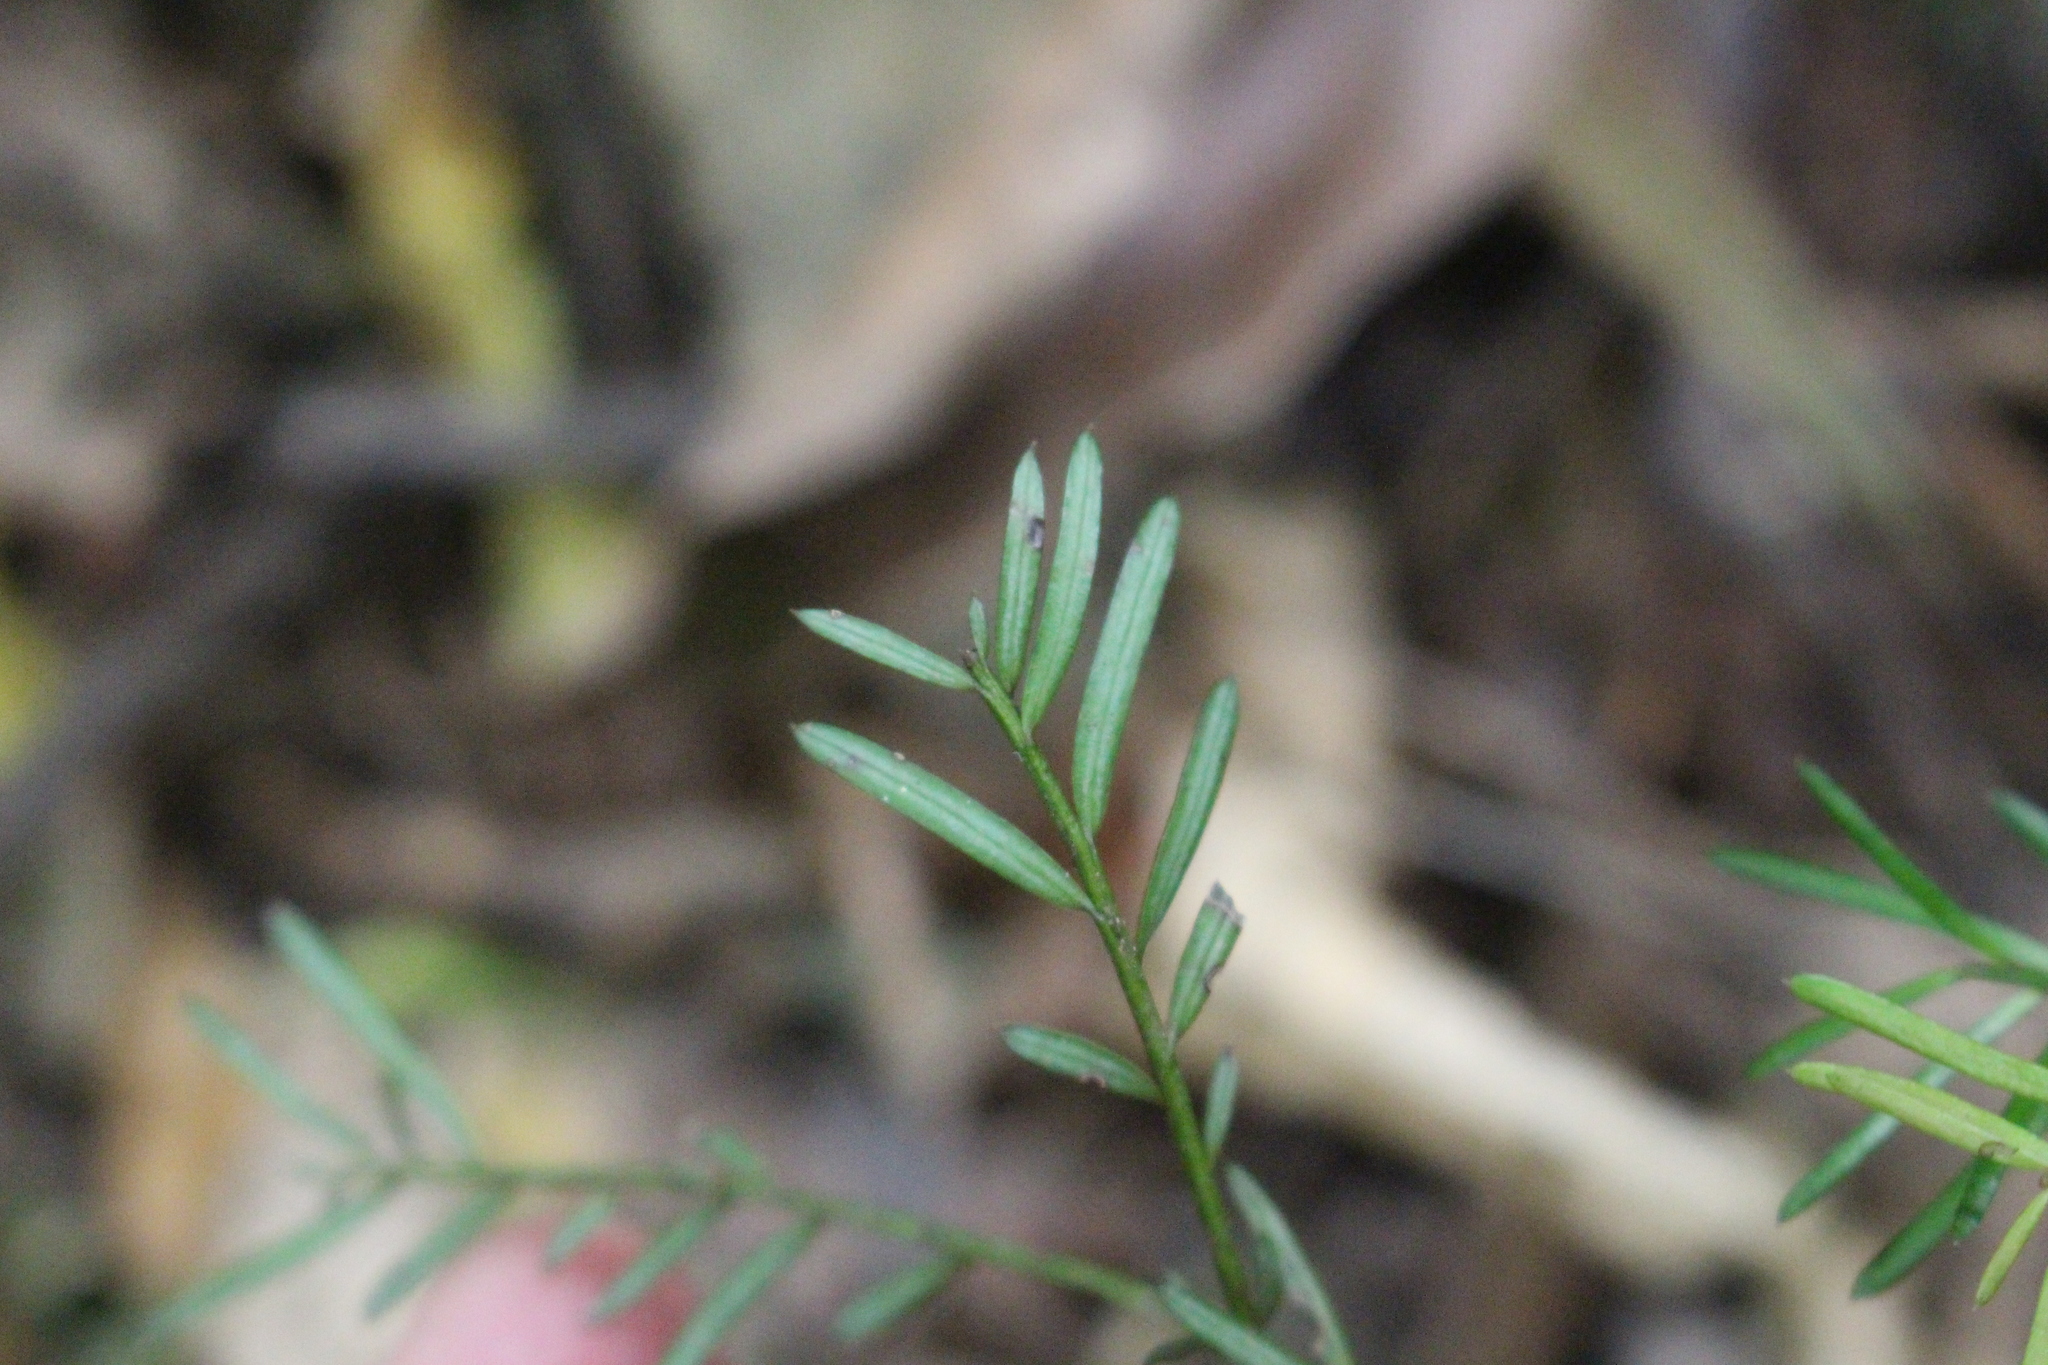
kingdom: Plantae
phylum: Tracheophyta
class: Pinopsida
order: Pinales
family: Podocarpaceae
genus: Prumnopitys
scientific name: Prumnopitys taxifolia
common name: Matai
